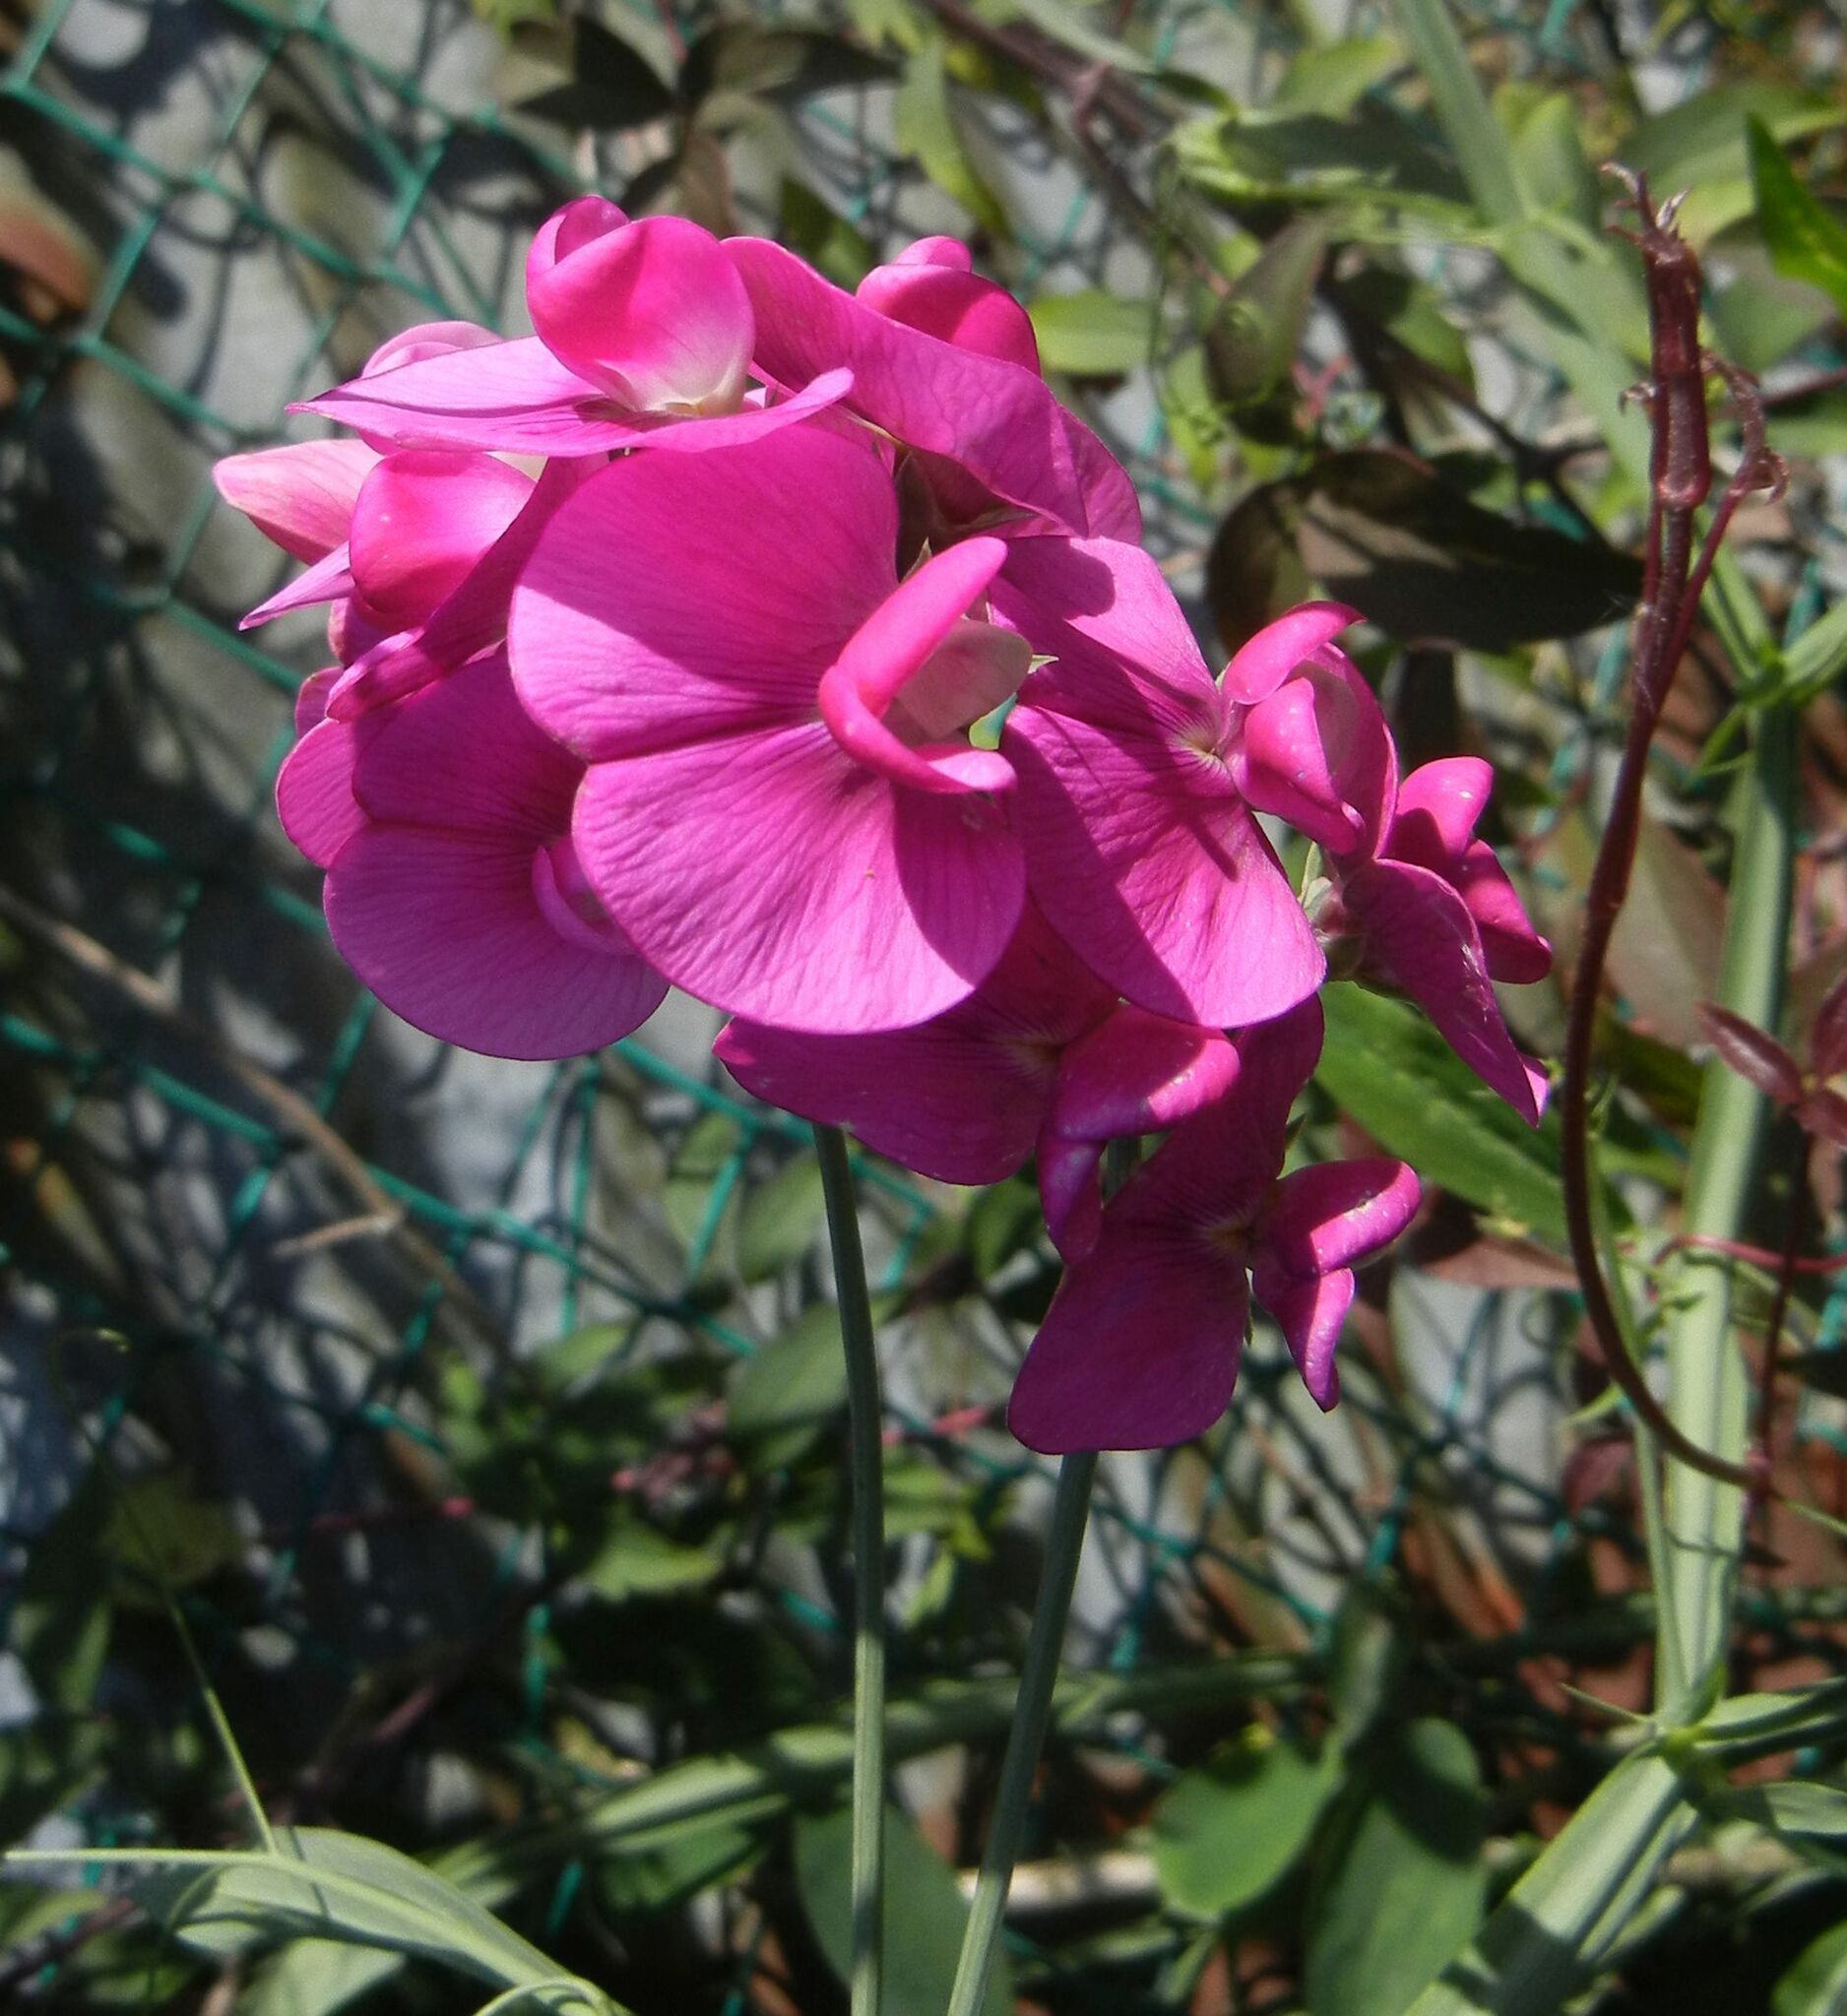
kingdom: Plantae
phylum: Tracheophyta
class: Magnoliopsida
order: Fabales
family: Fabaceae
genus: Lathyrus
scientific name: Lathyrus latifolius
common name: Perennial pea
